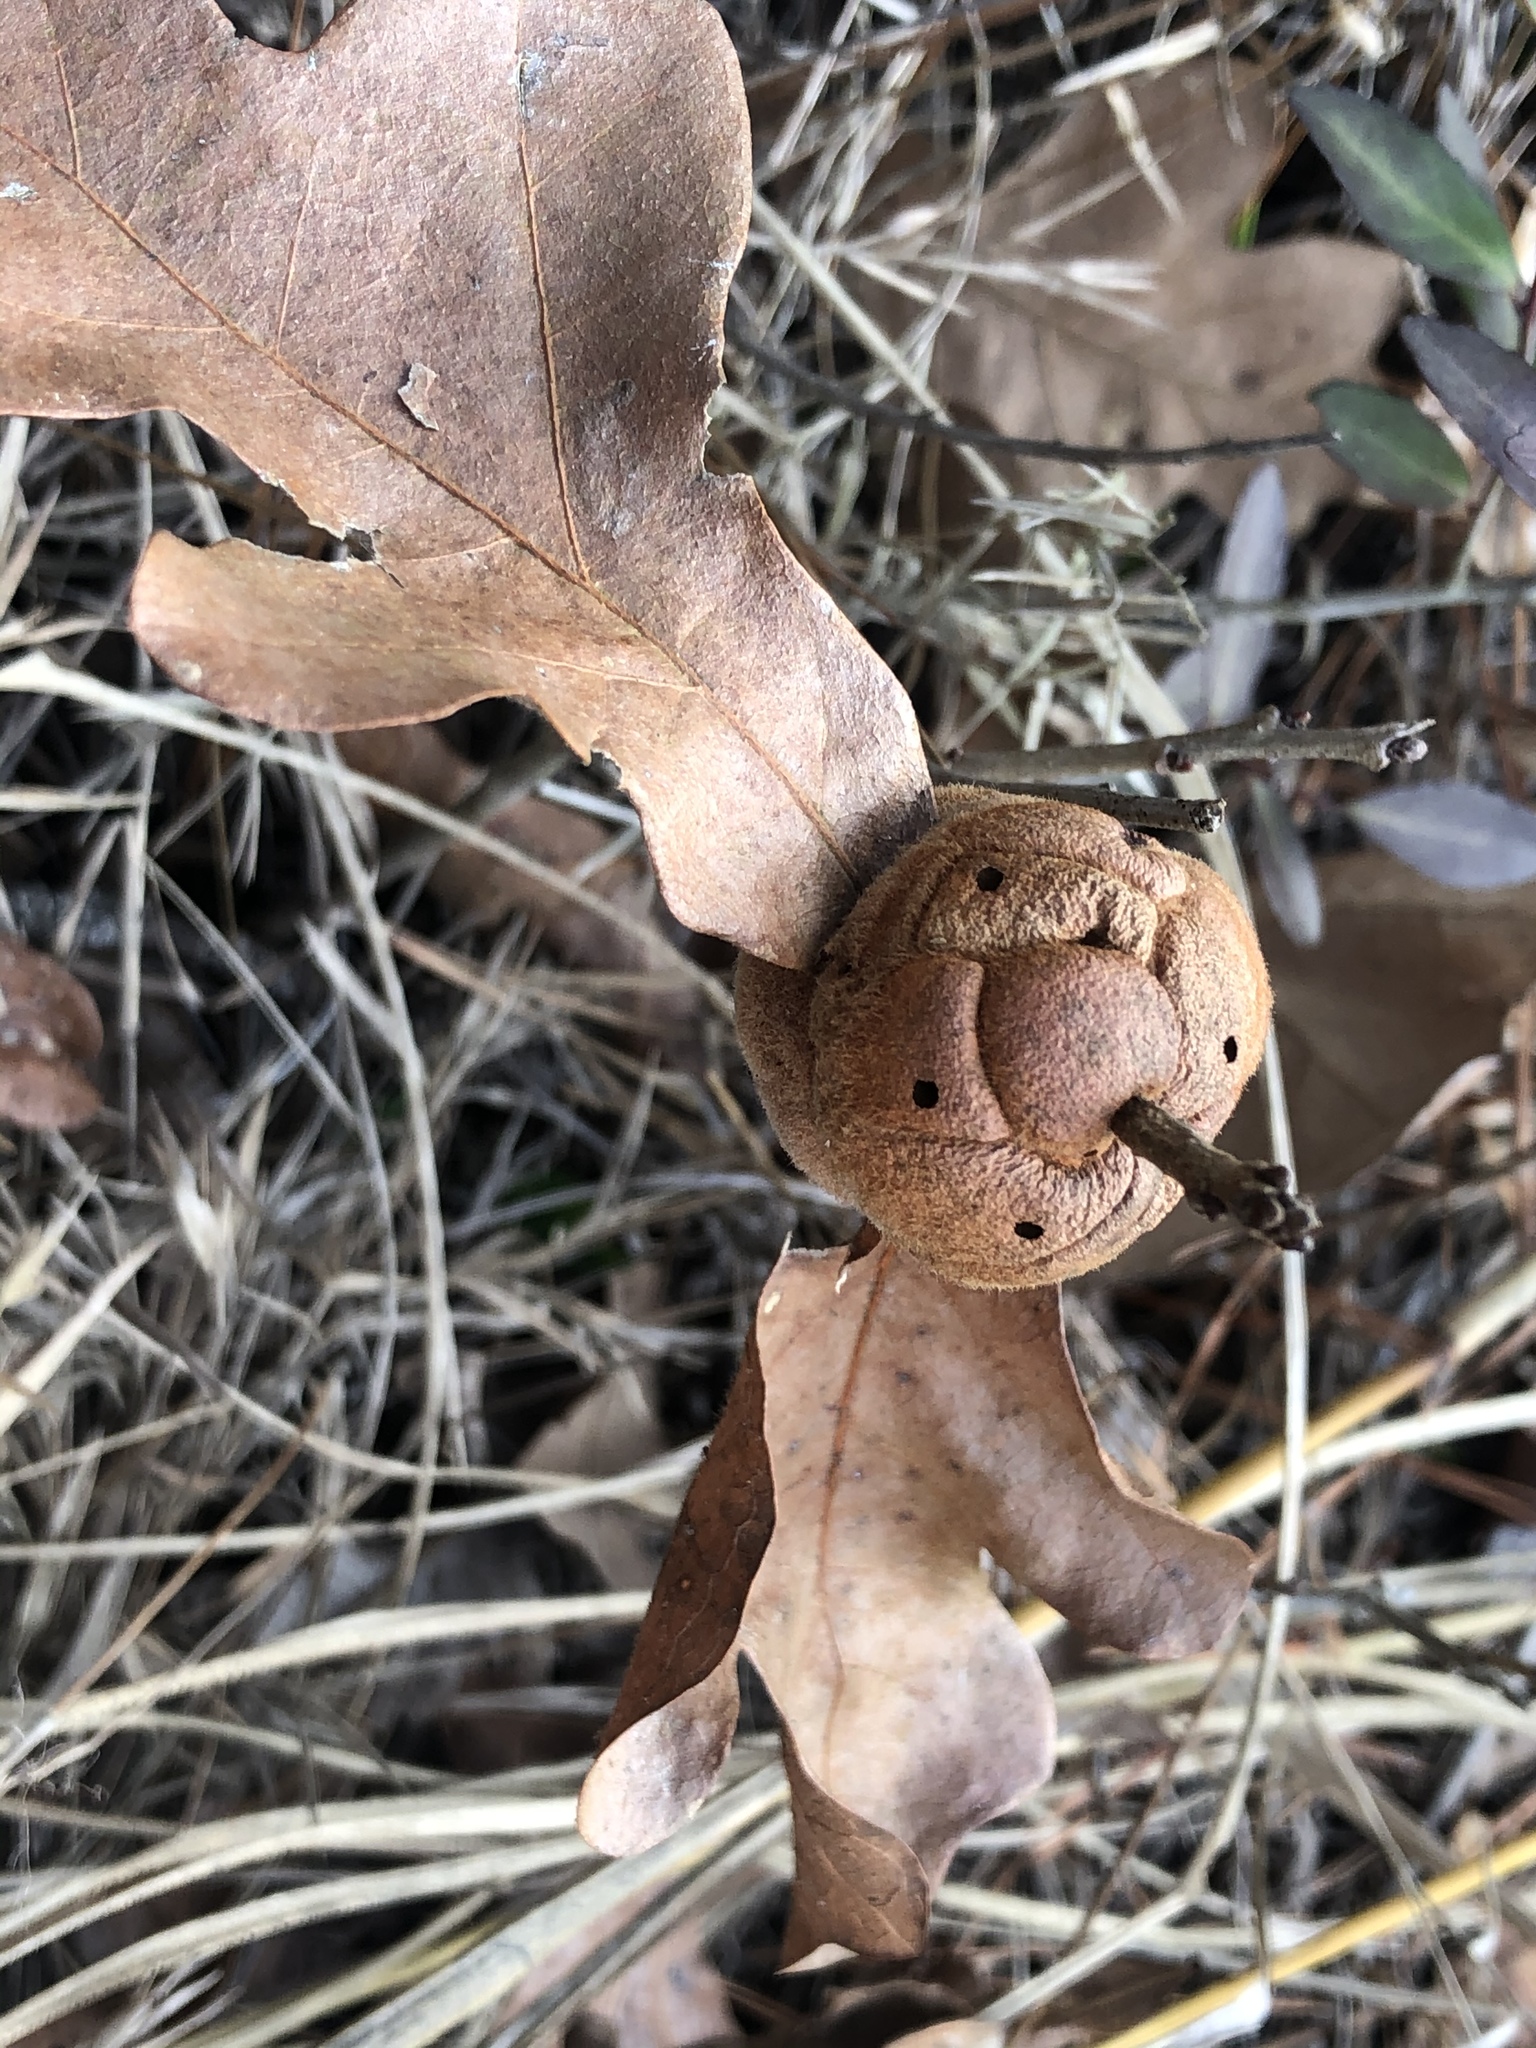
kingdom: Animalia
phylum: Arthropoda
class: Insecta
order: Hymenoptera
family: Cynipidae
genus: Disholcaspis
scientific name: Disholcaspis
